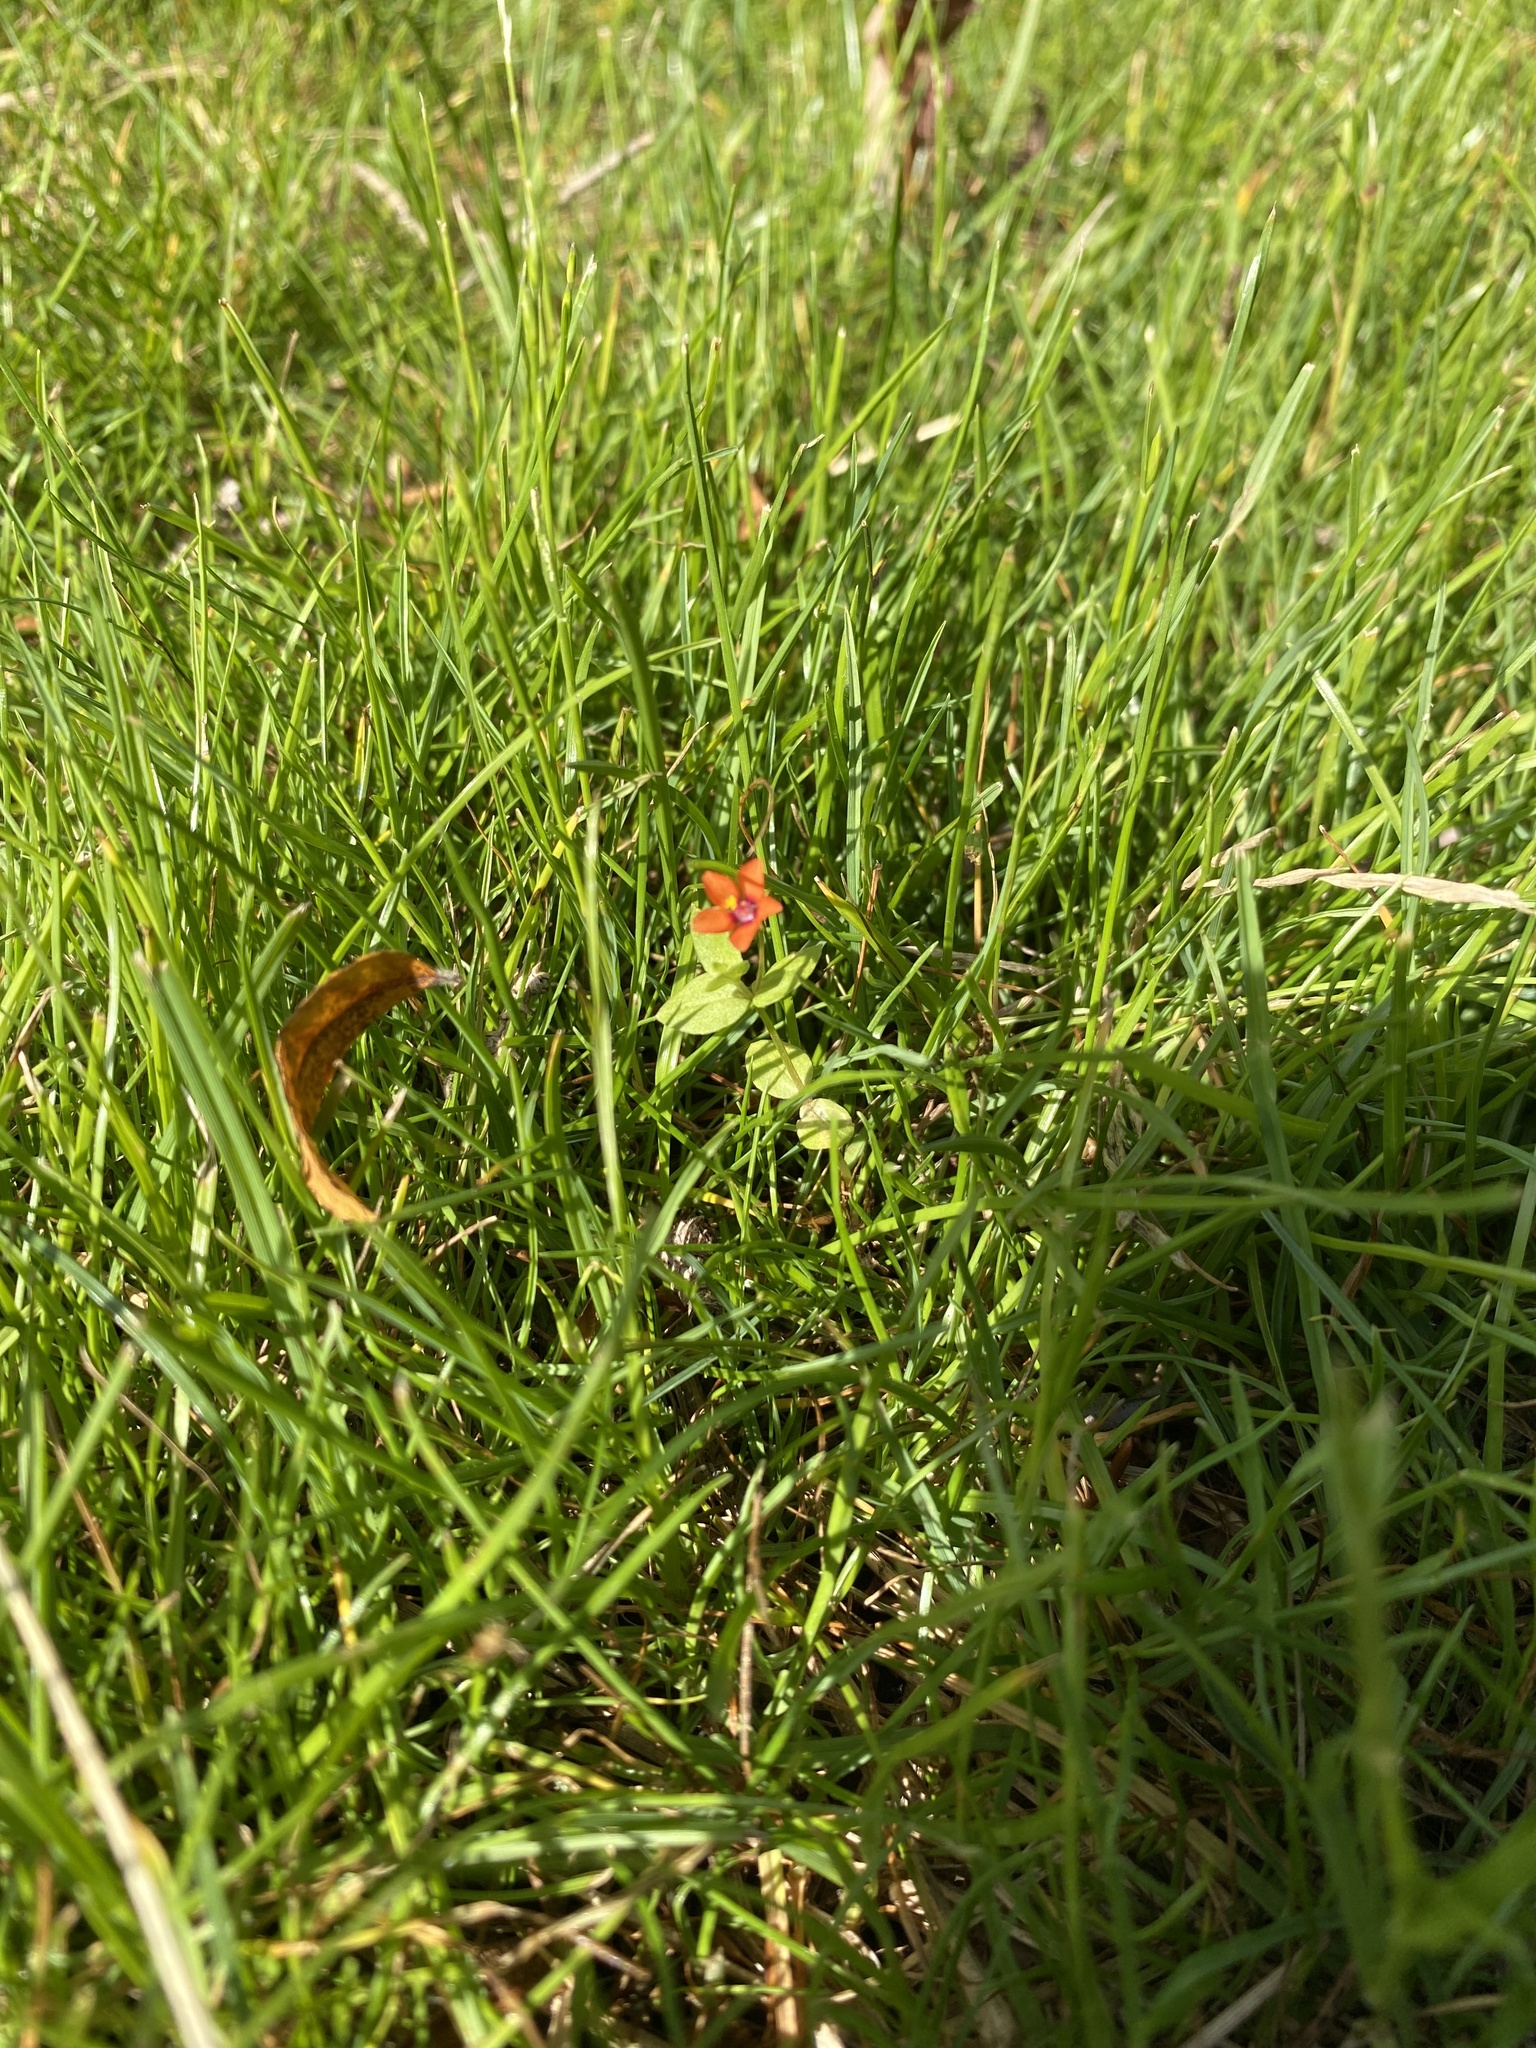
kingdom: Plantae
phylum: Tracheophyta
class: Magnoliopsida
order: Ericales
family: Primulaceae
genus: Lysimachia
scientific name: Lysimachia arvensis
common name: Scarlet pimpernel
